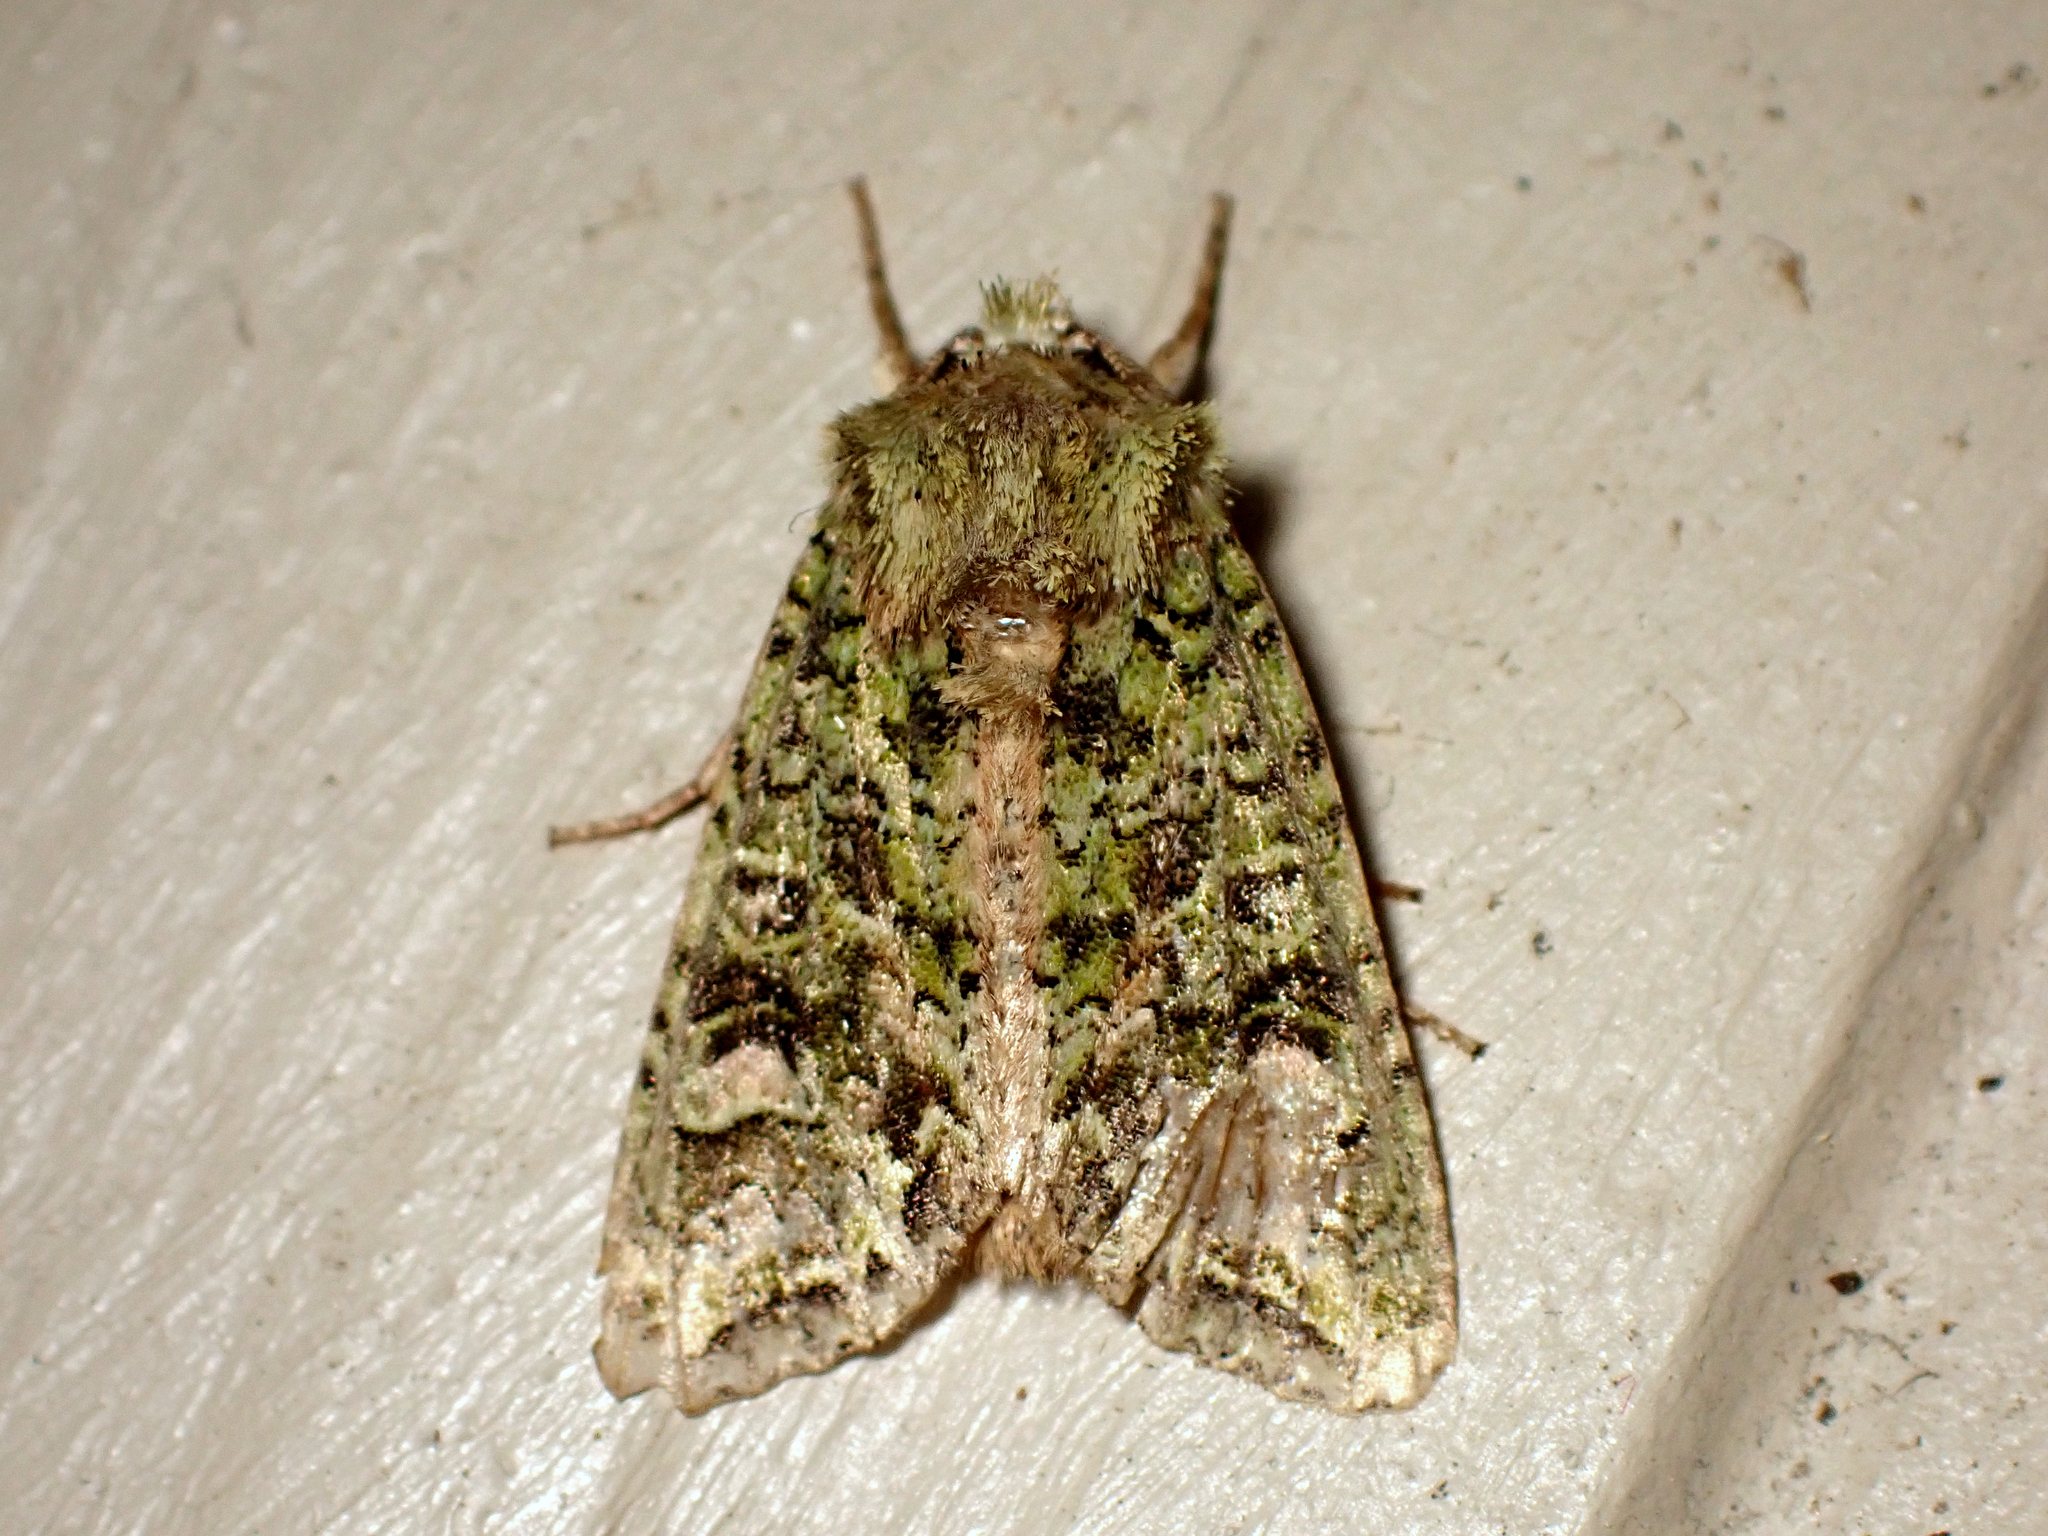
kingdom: Animalia
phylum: Arthropoda
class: Insecta
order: Lepidoptera
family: Noctuidae
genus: Ichneutica
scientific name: Ichneutica
